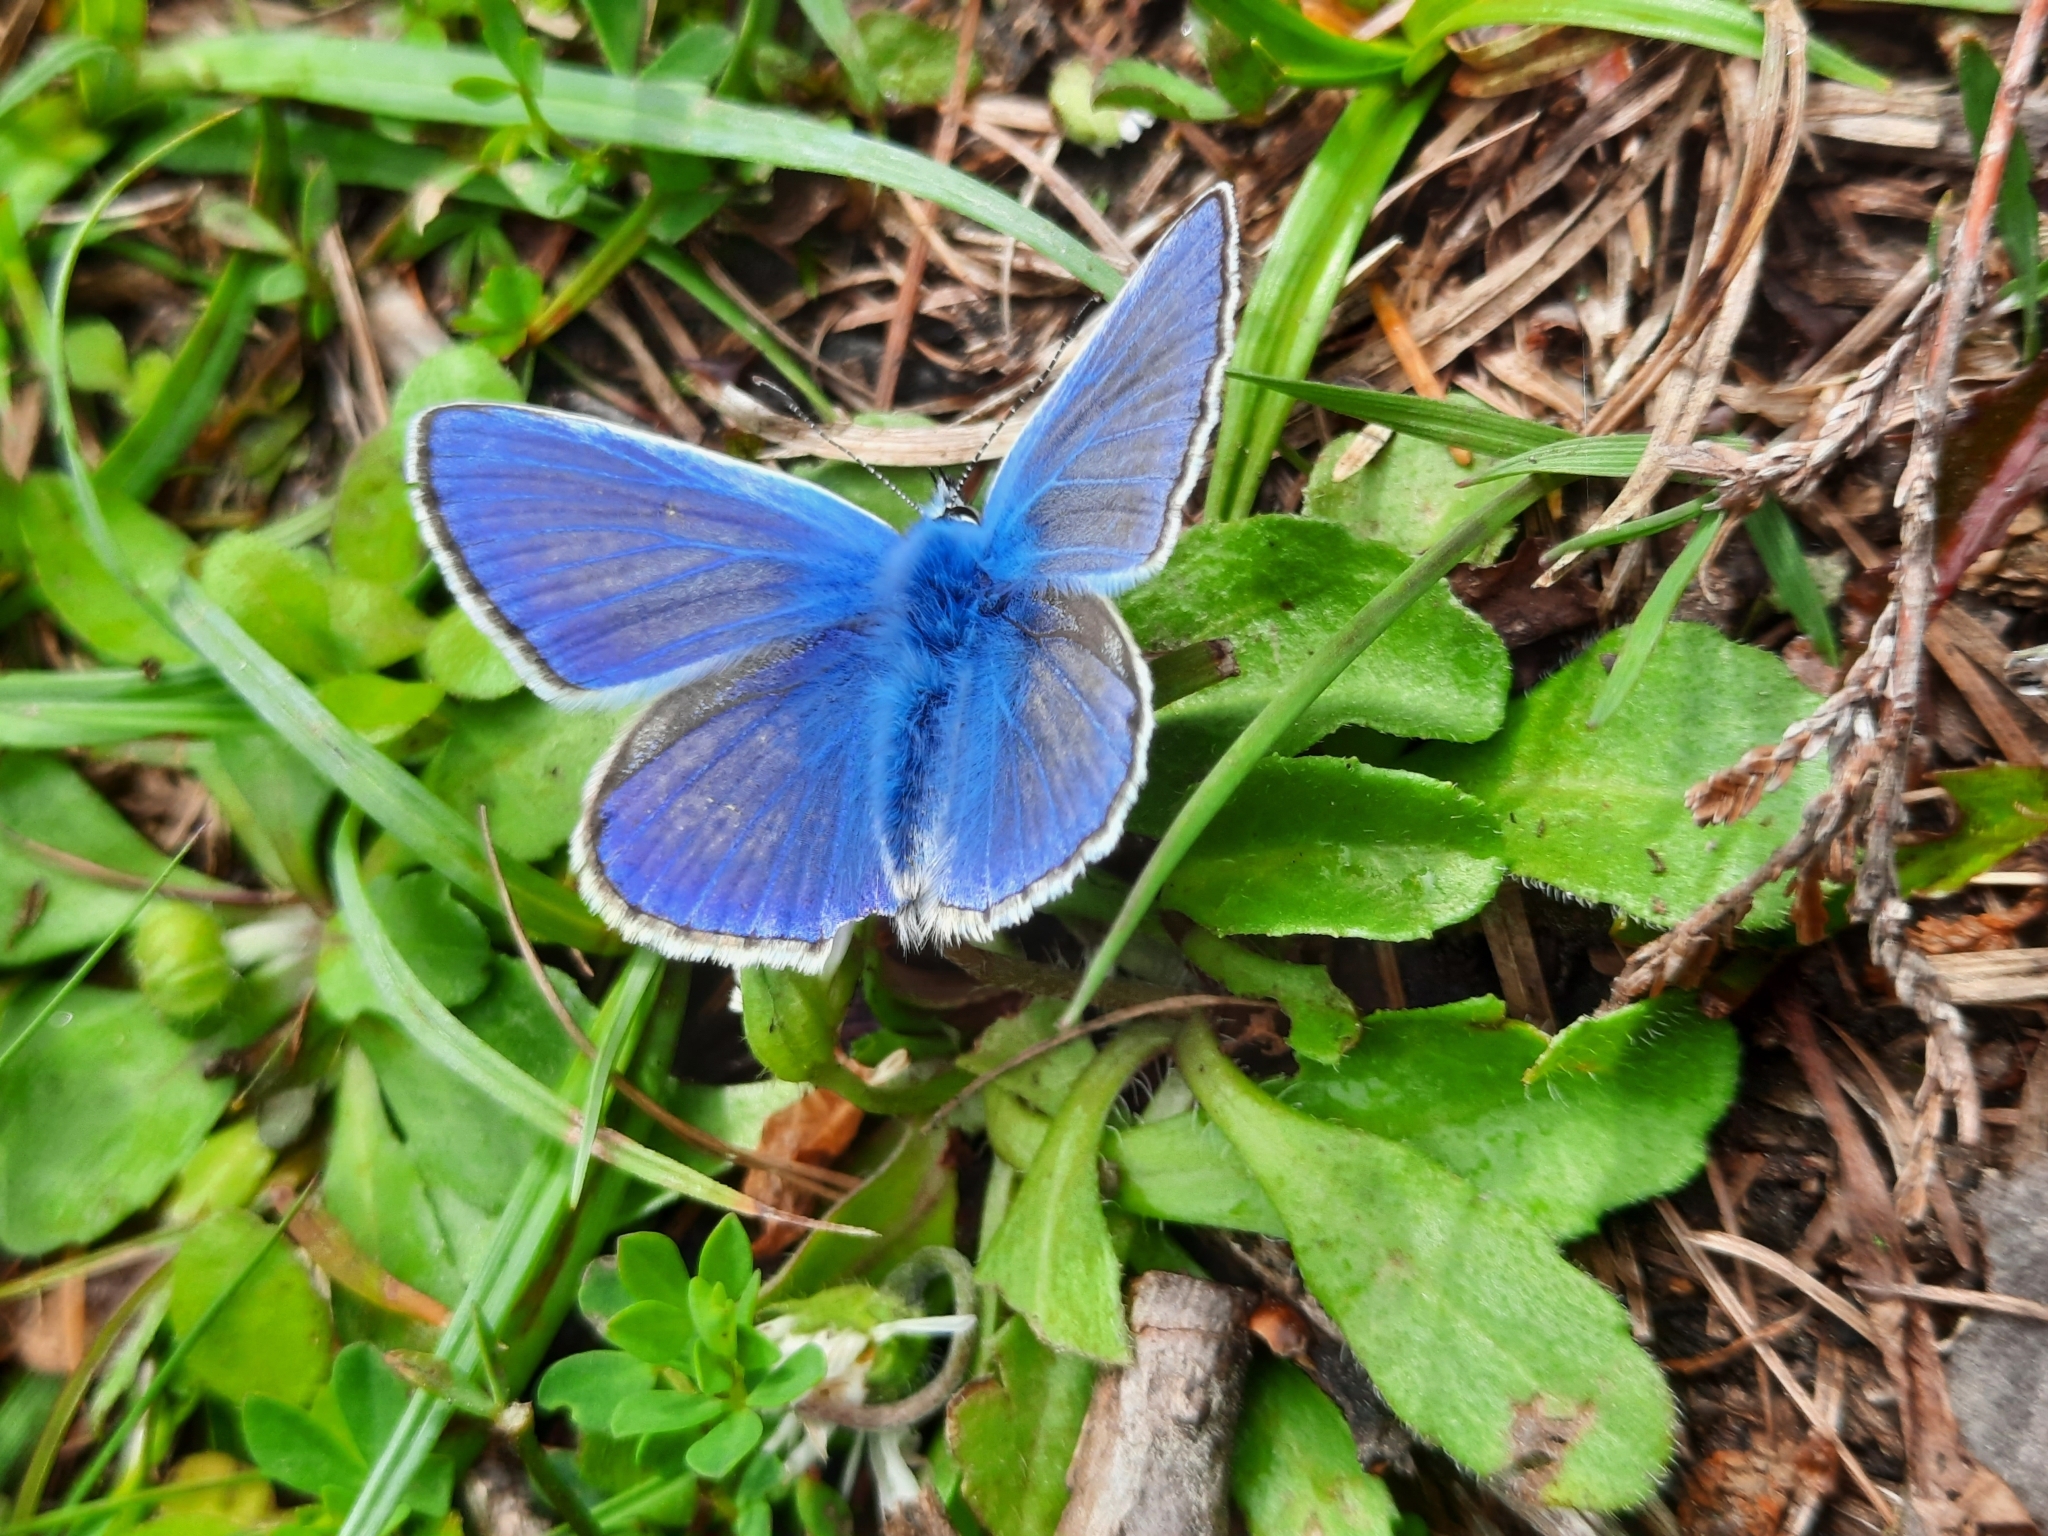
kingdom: Animalia
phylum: Arthropoda
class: Insecta
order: Lepidoptera
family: Lycaenidae
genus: Polyommatus
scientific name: Polyommatus icarus
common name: Common blue
